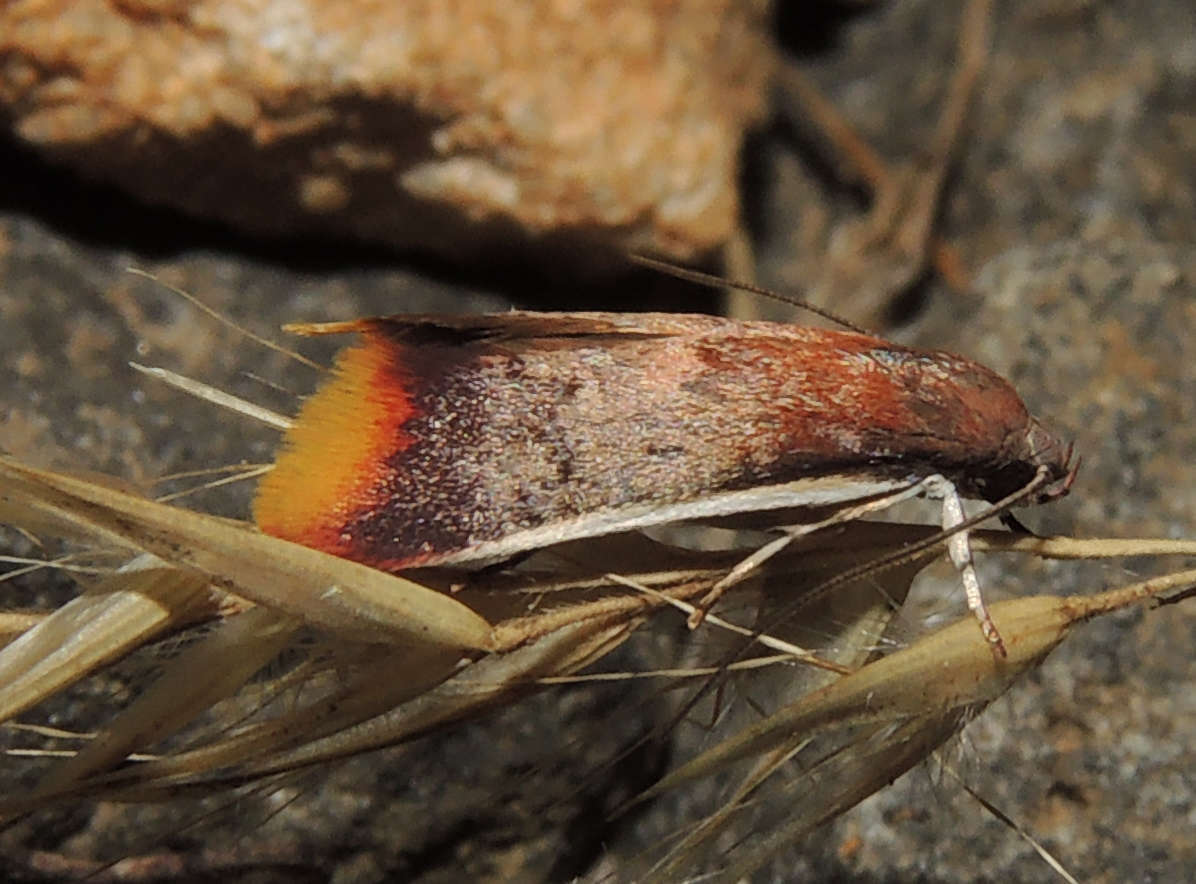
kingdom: Animalia
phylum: Arthropoda
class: Insecta
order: Lepidoptera
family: Oecophoridae
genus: Hemibela
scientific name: Hemibela callista
